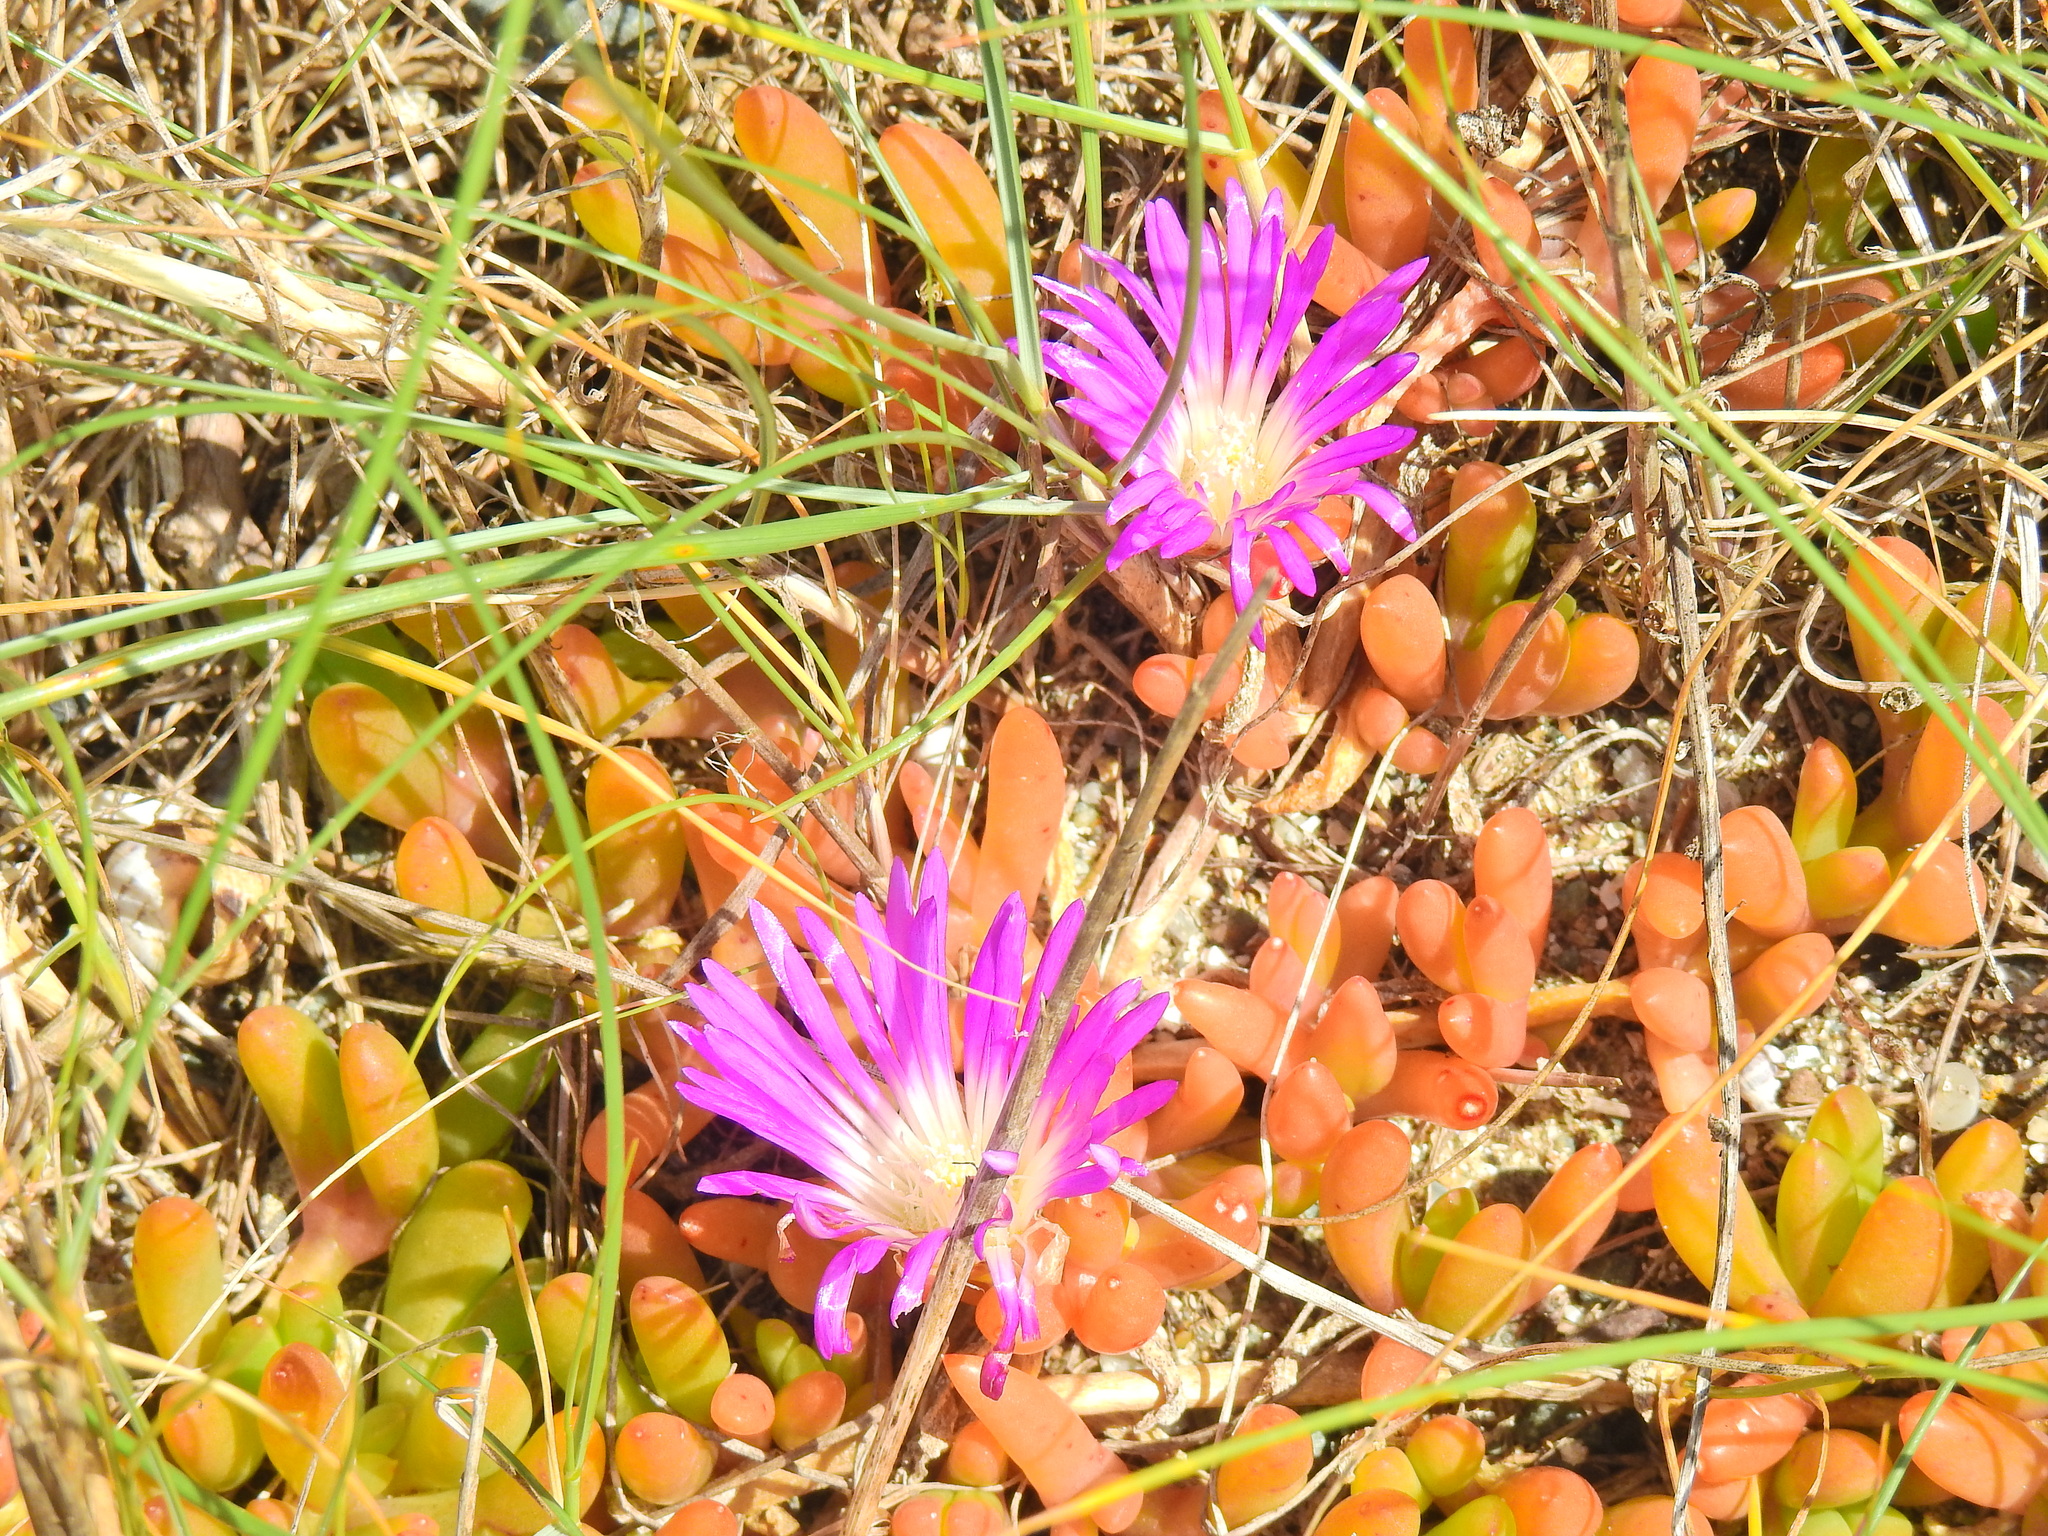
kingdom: Plantae
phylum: Tracheophyta
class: Magnoliopsida
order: Caryophyllales
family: Aizoaceae
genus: Disphyma
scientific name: Disphyma crassifolium
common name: Purple dewplant
